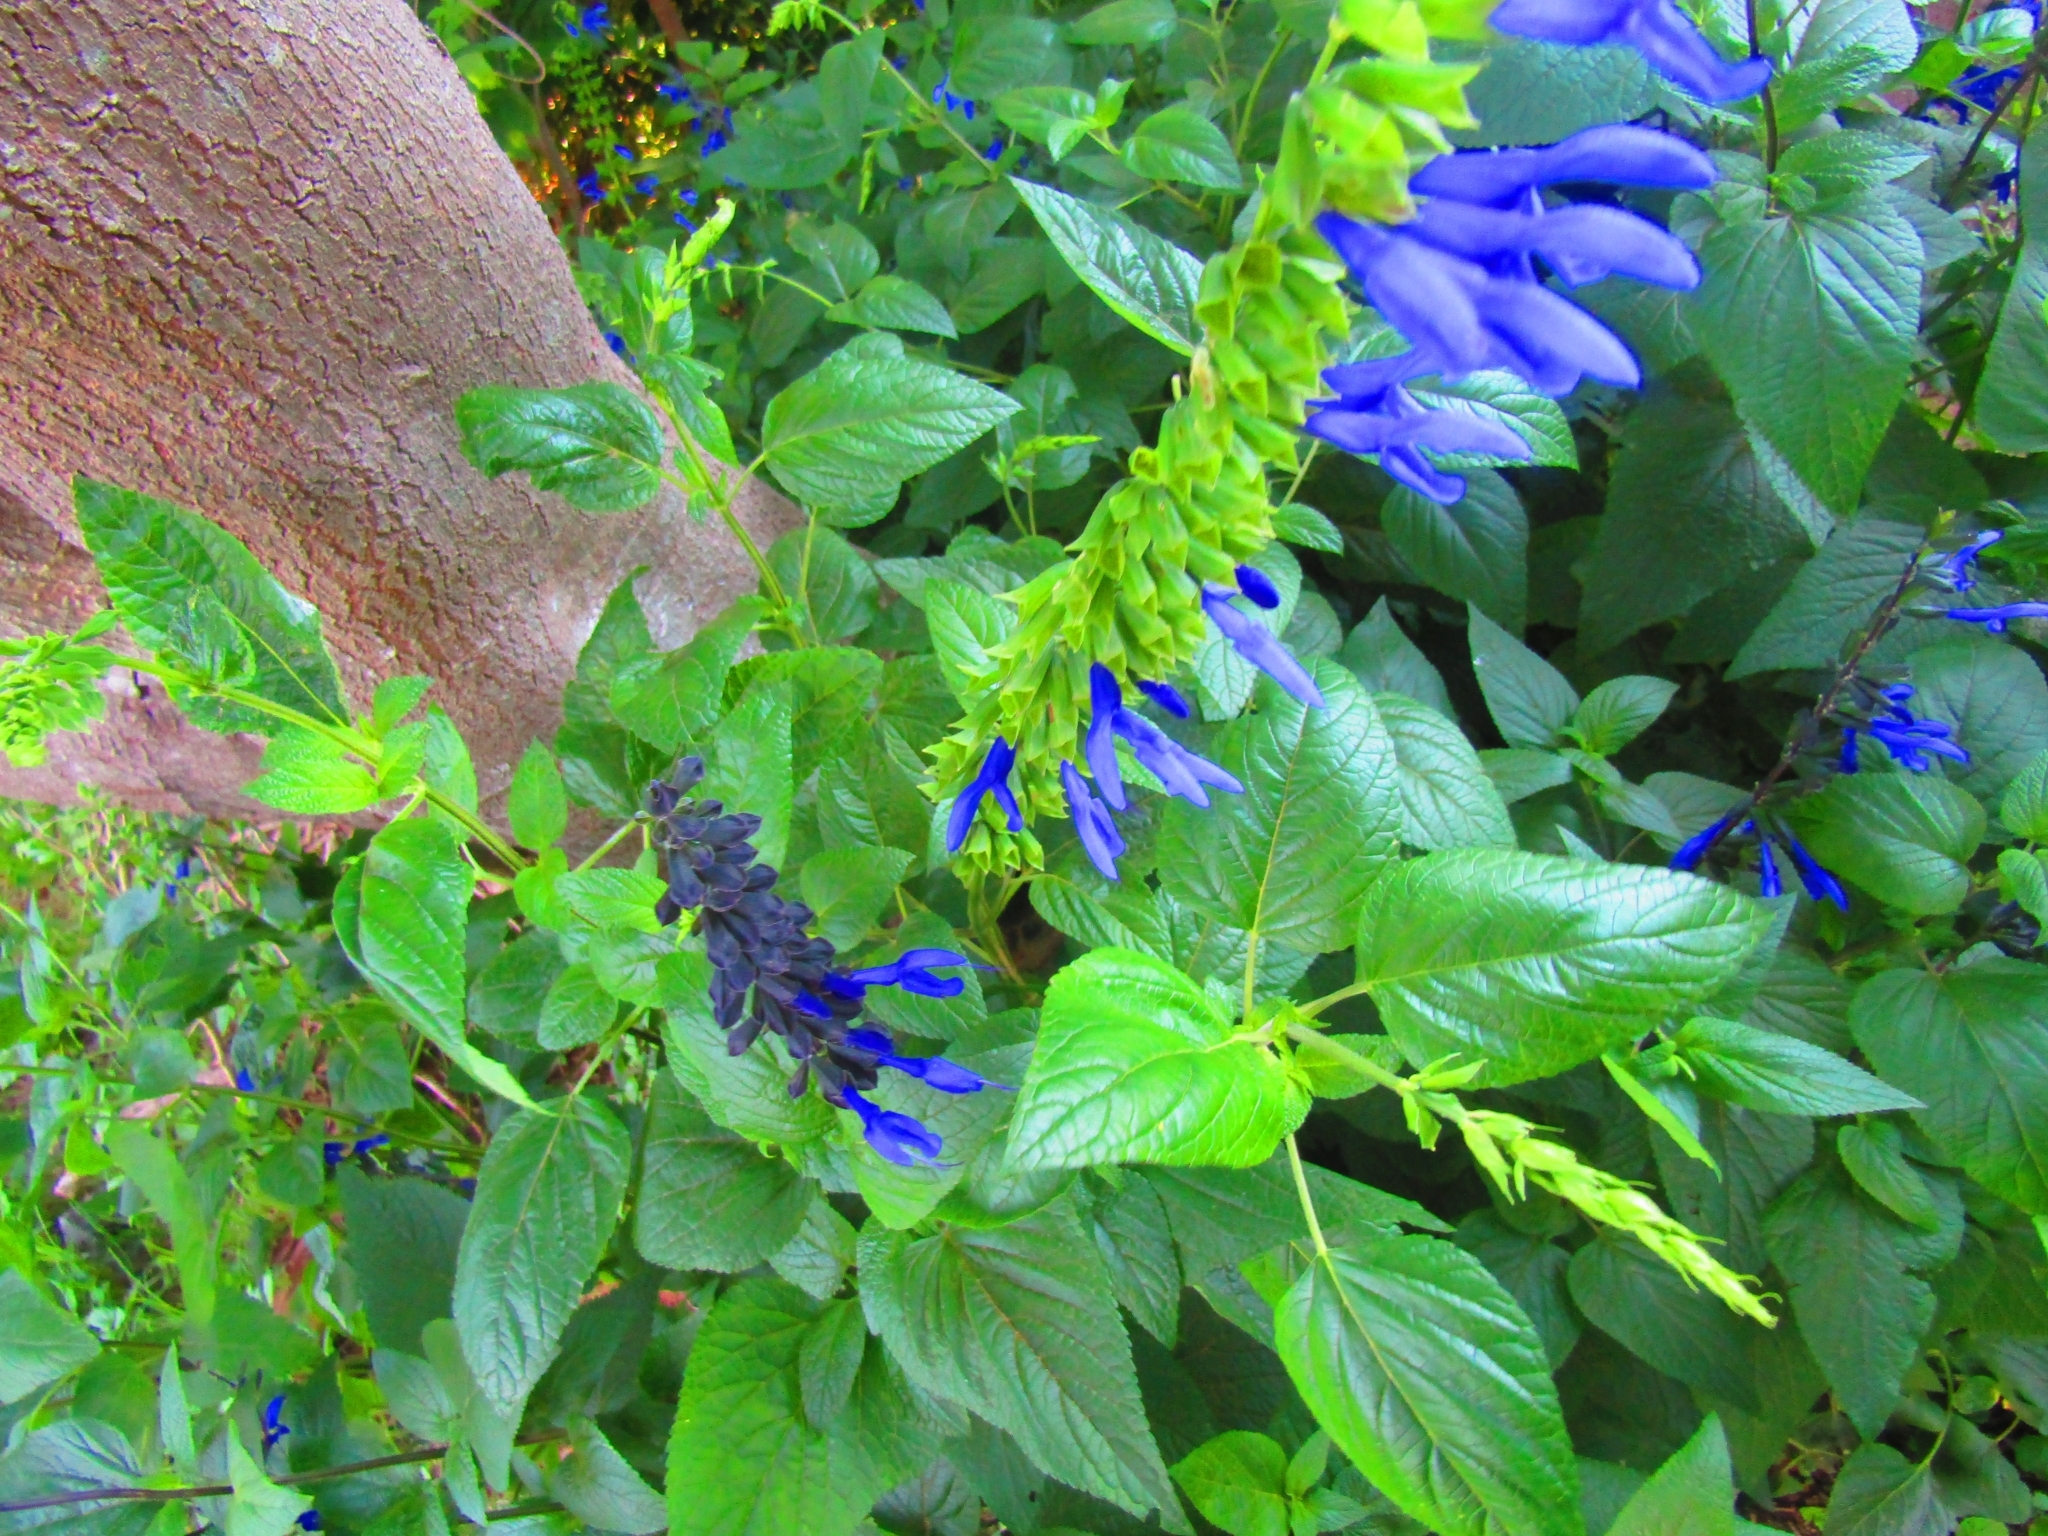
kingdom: Plantae
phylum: Tracheophyta
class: Magnoliopsida
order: Lamiales
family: Lamiaceae
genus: Salvia
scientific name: Salvia guaranitica
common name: Anise-scented sage
